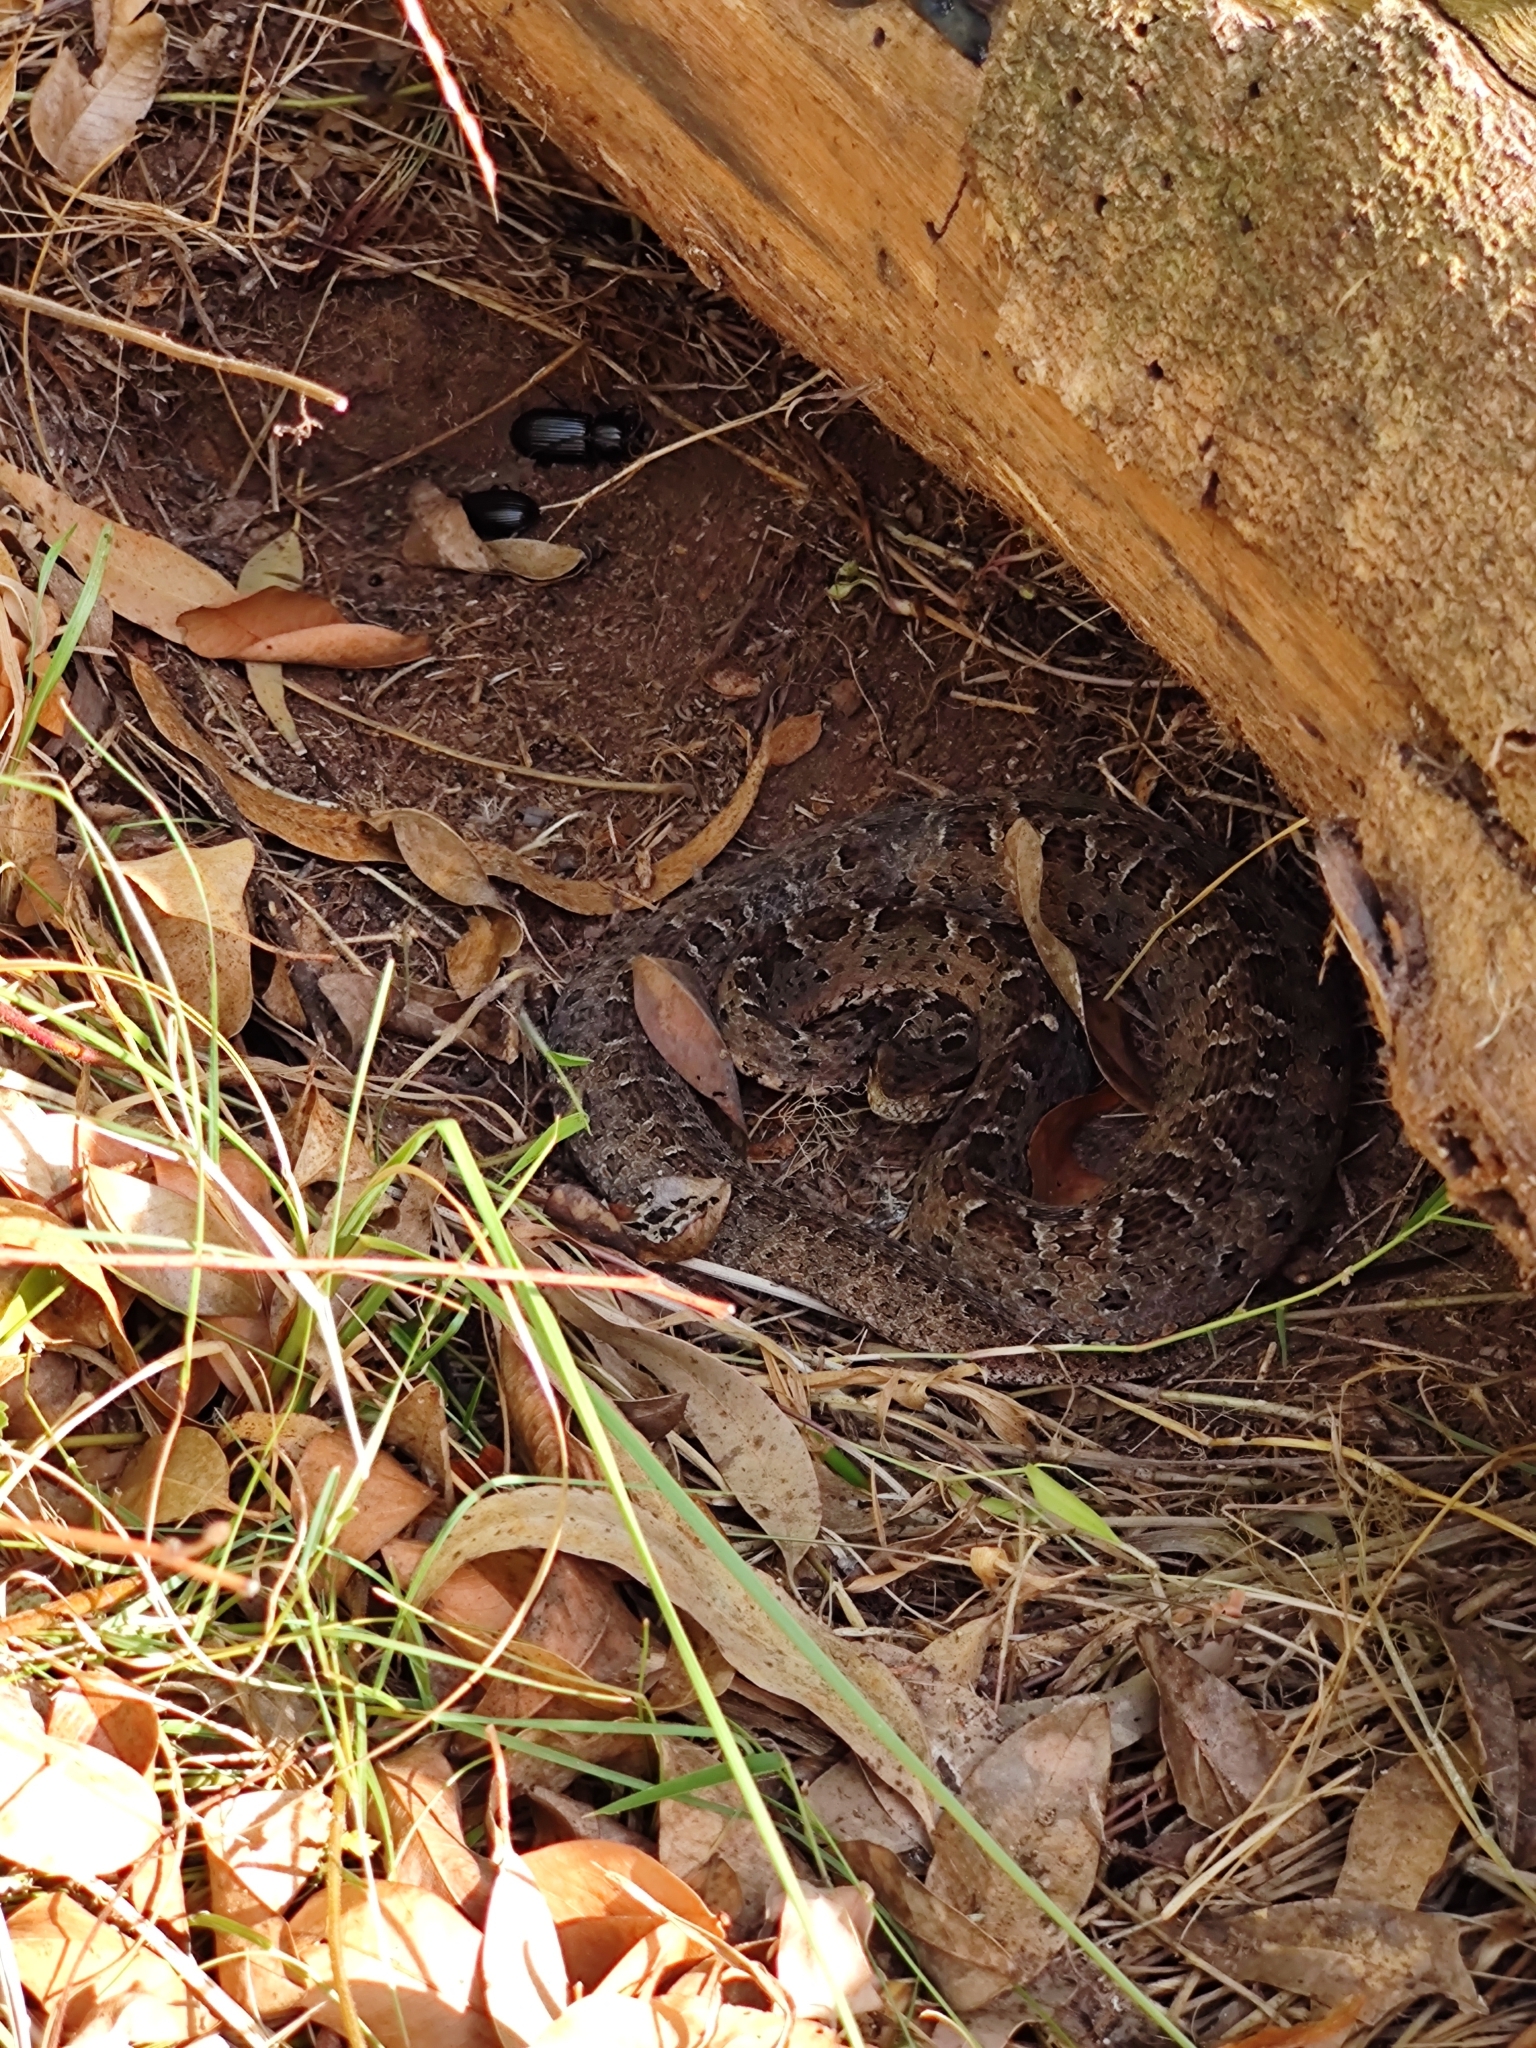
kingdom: Animalia
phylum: Chordata
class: Squamata
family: Viperidae
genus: Bothrops
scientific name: Bothrops pubescens
